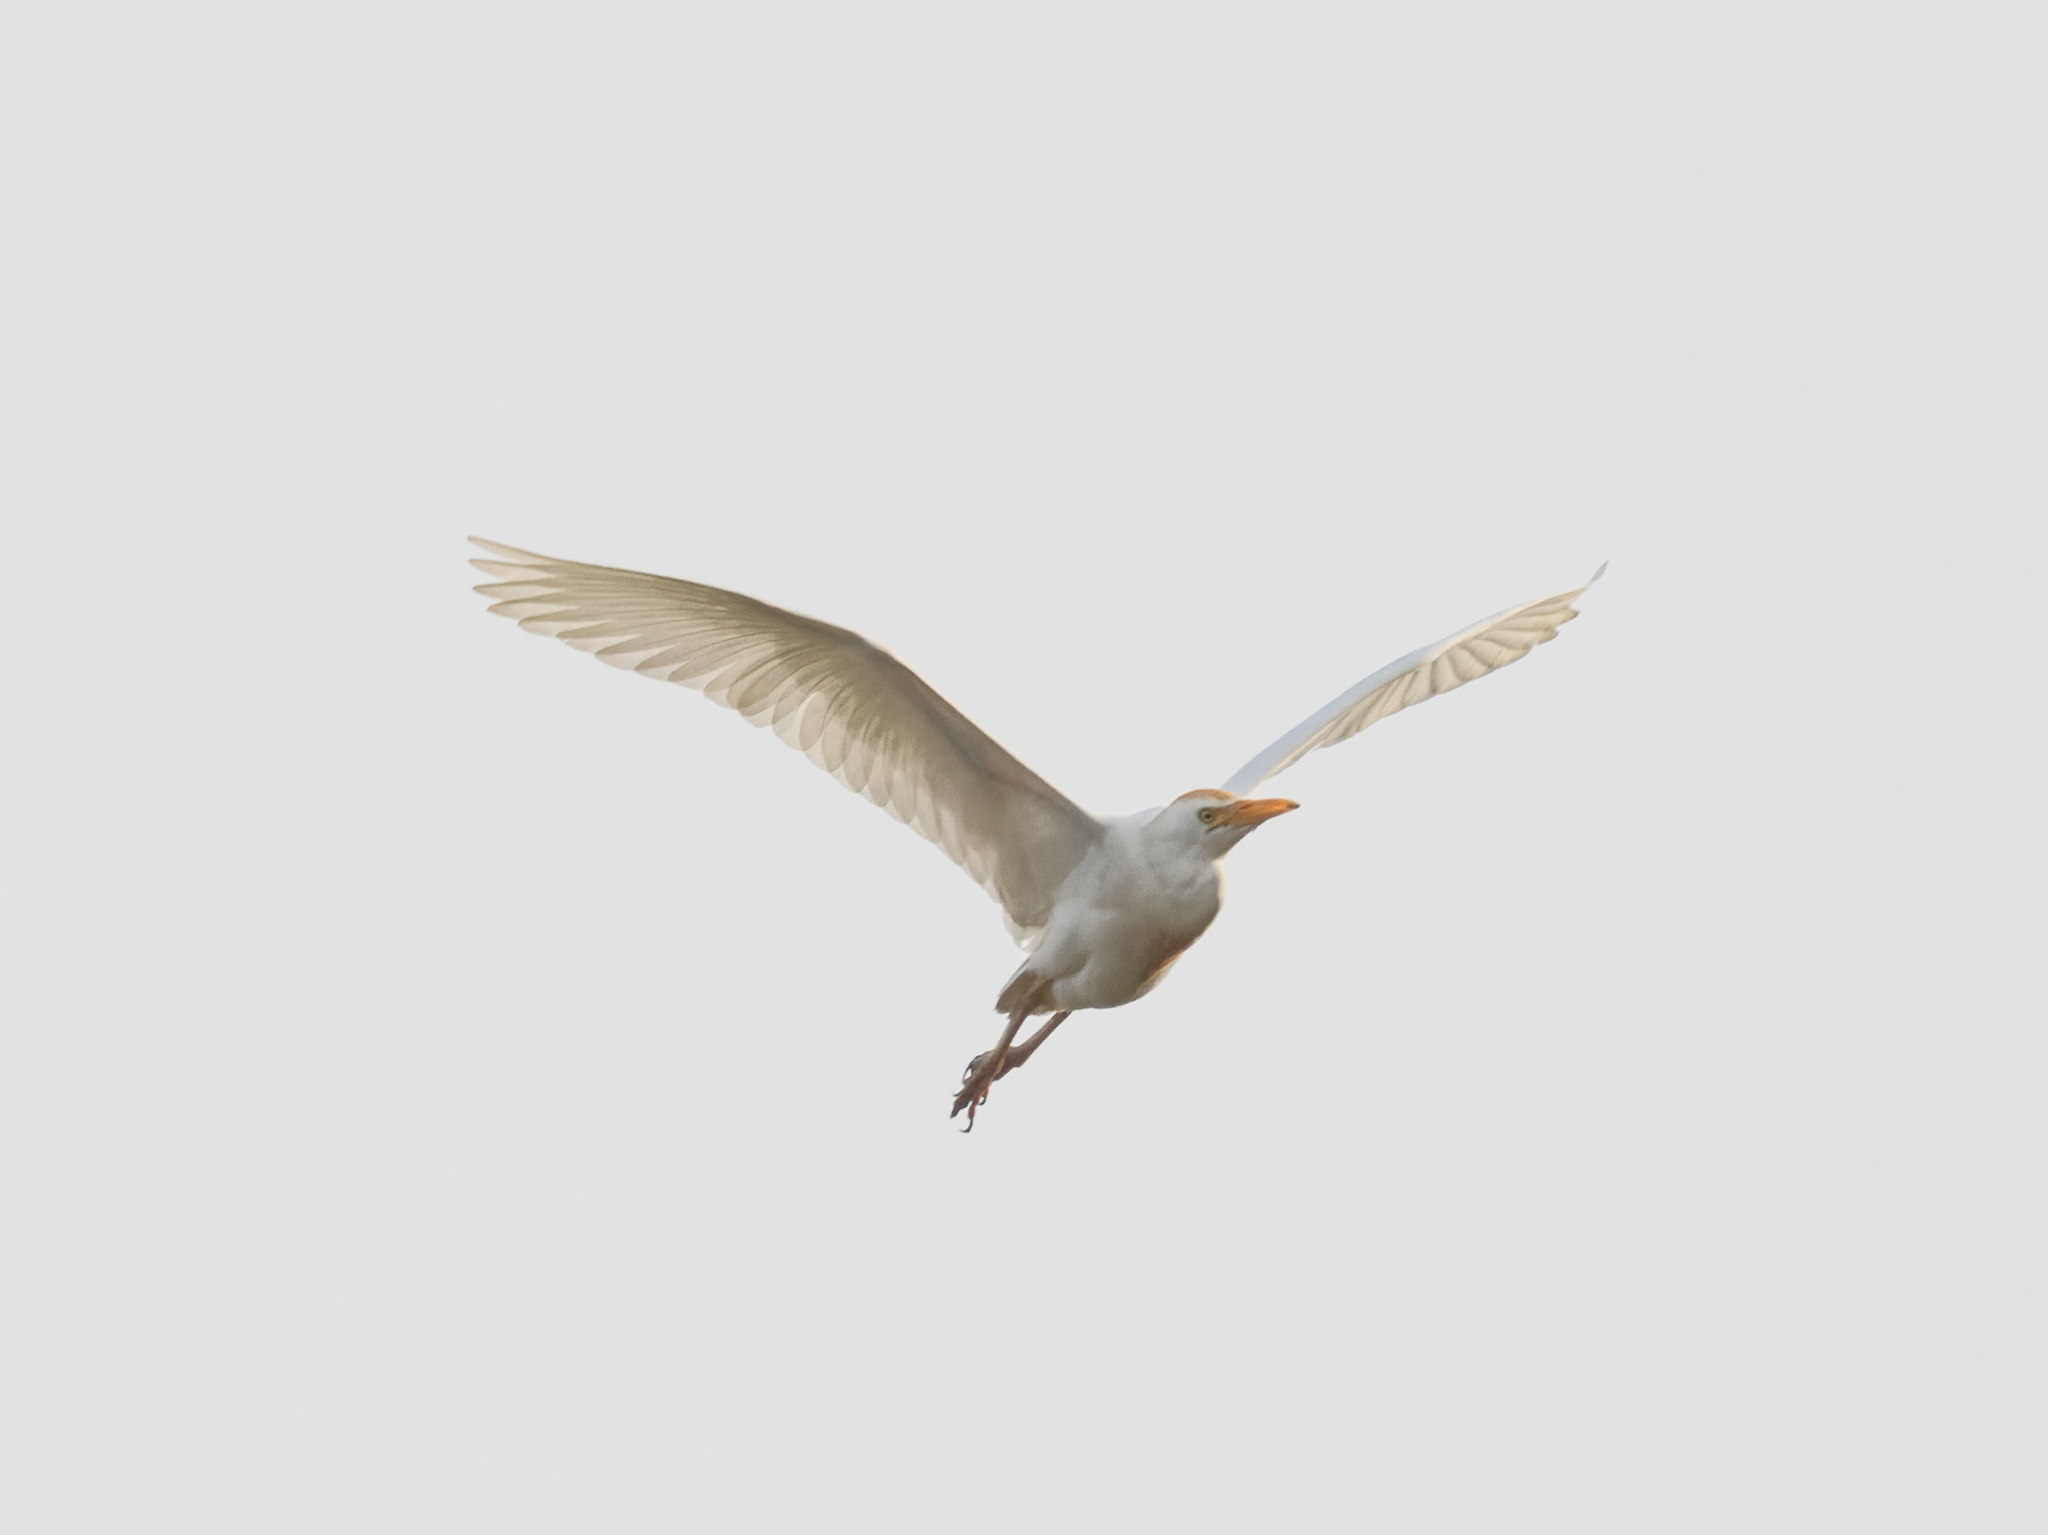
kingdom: Animalia
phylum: Chordata
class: Aves
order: Pelecaniformes
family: Ardeidae
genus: Bubulcus
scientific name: Bubulcus ibis
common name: Cattle egret
